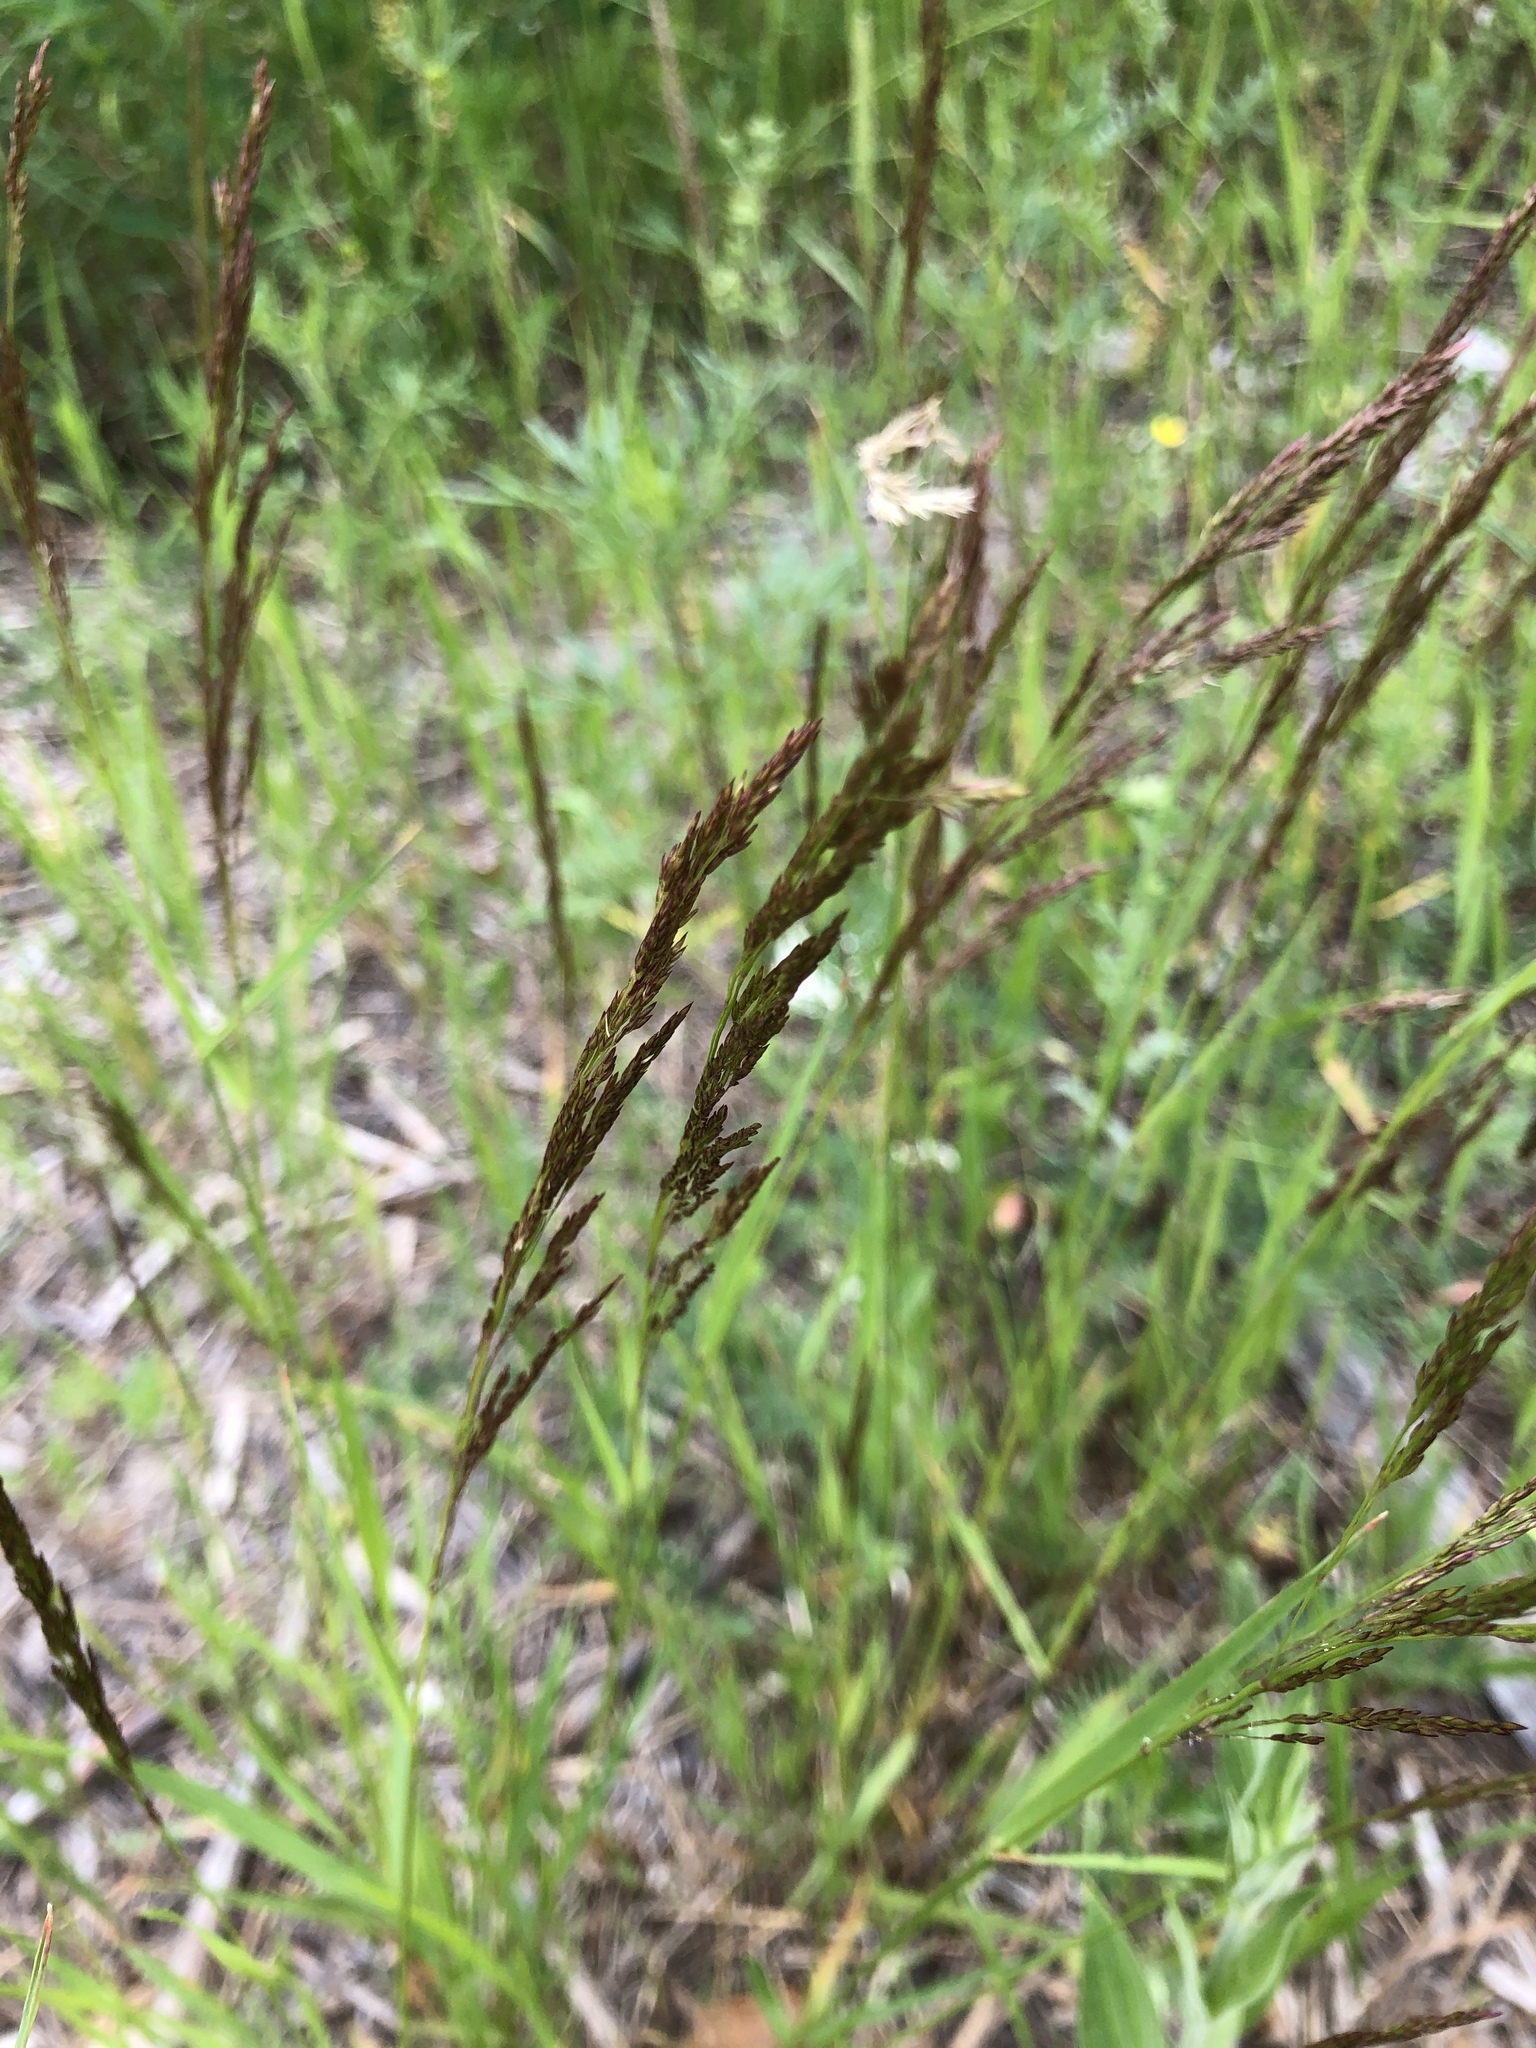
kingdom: Plantae
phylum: Tracheophyta
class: Liliopsida
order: Poales
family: Poaceae
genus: Agrostis
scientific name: Agrostis vinealis
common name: Brown bent
